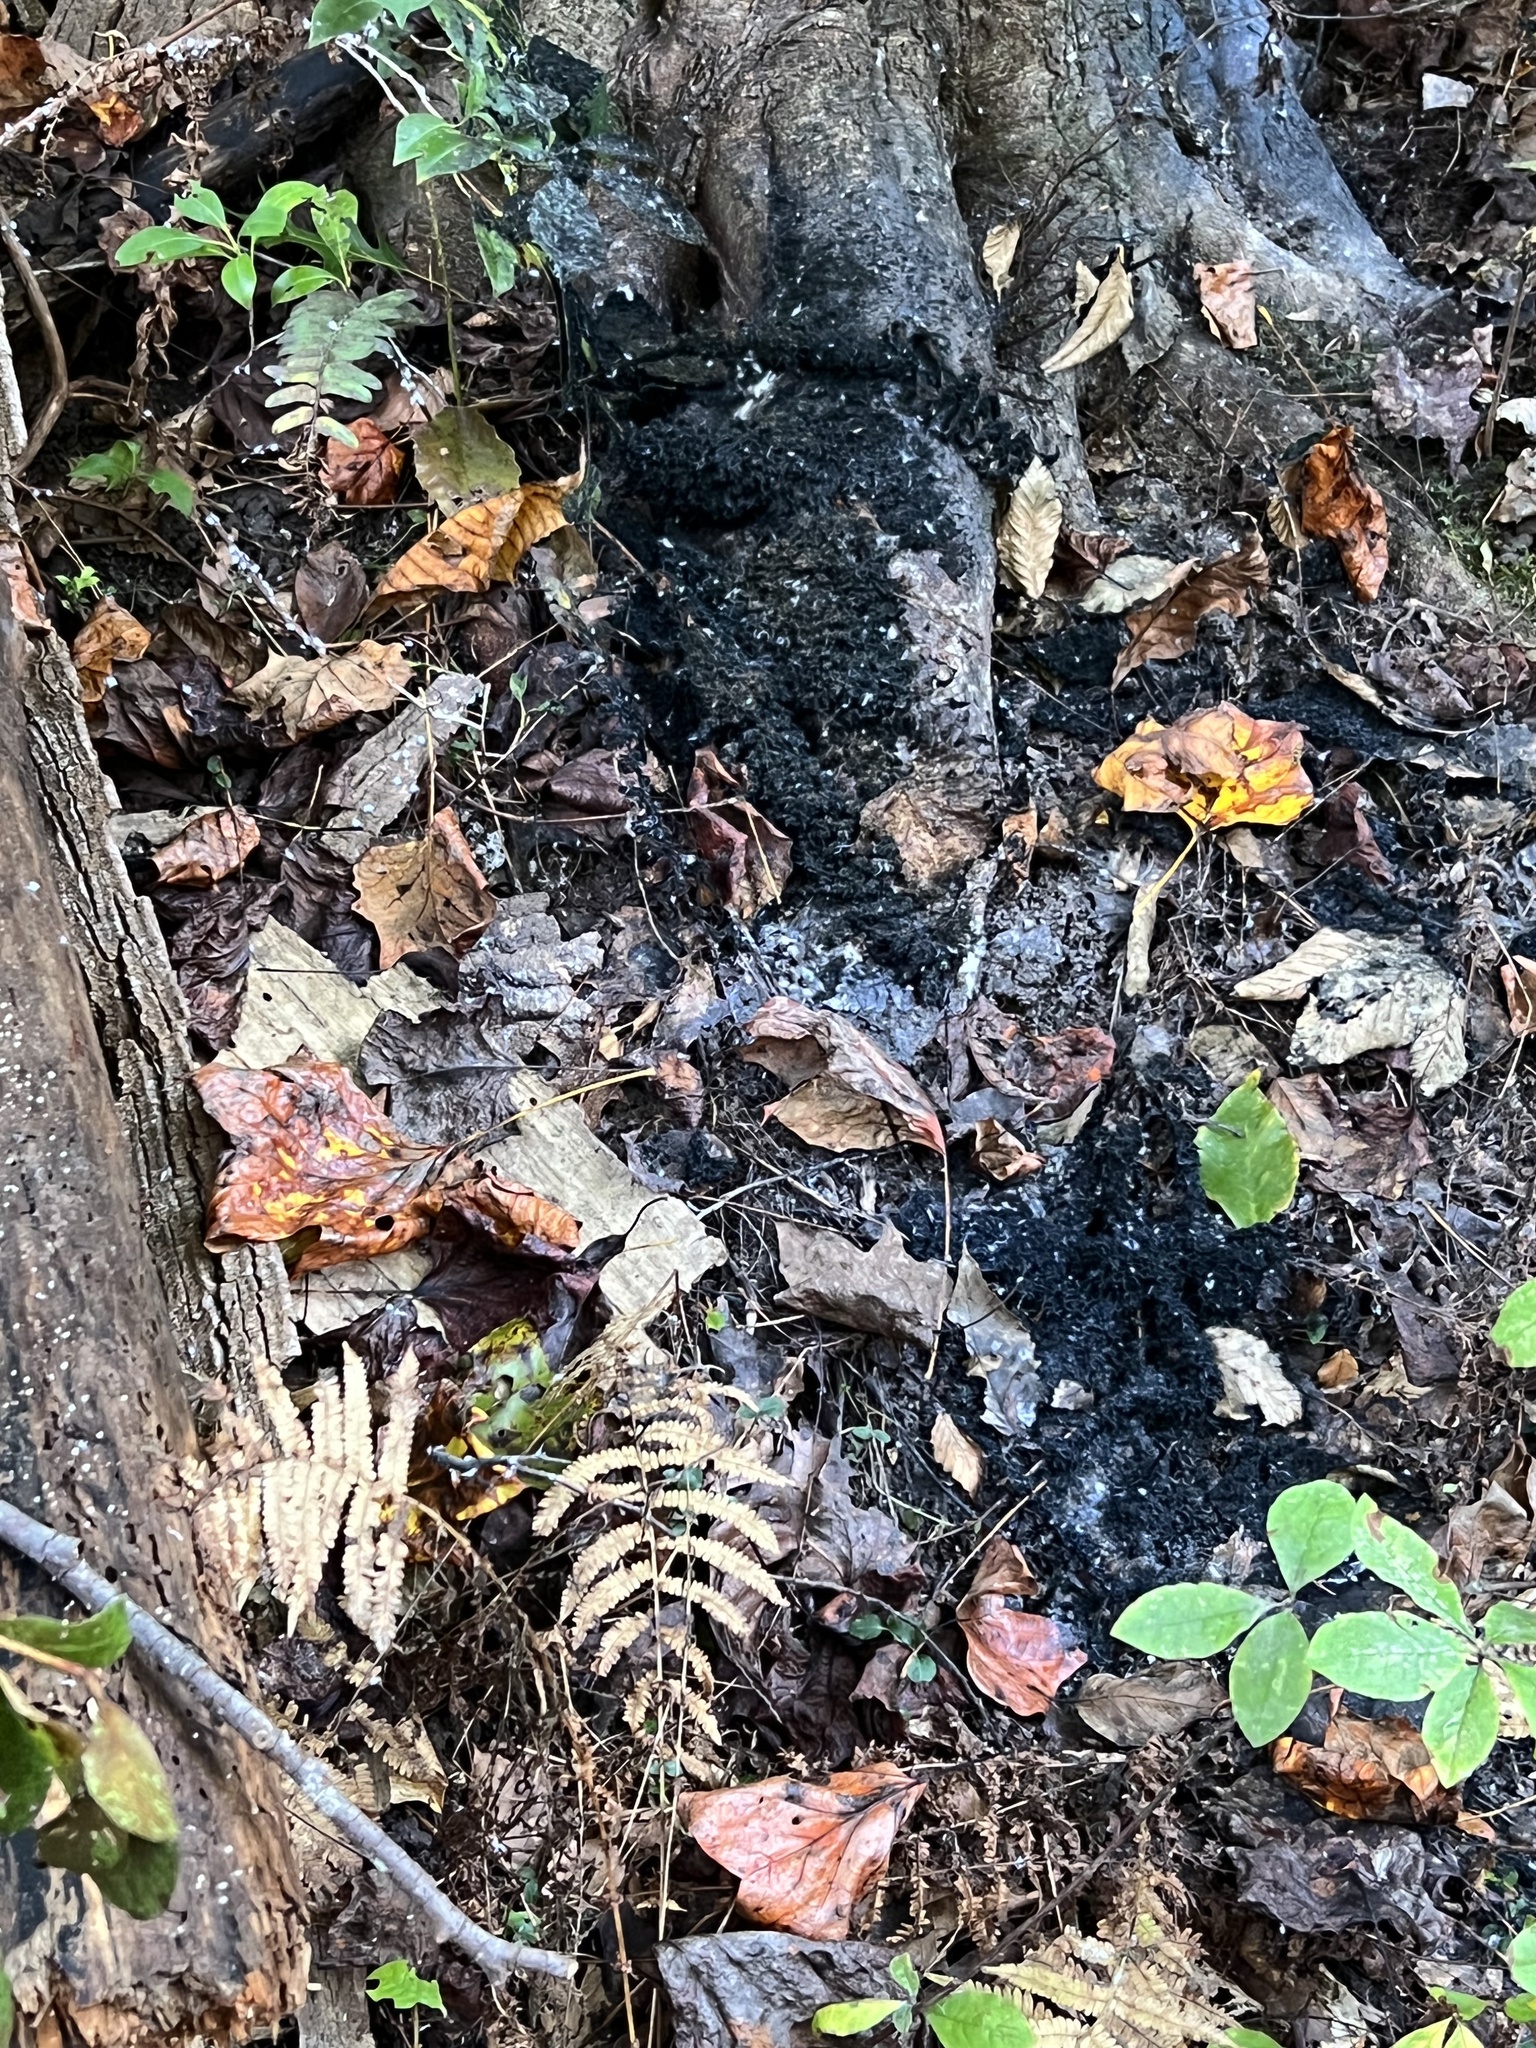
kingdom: Fungi
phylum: Ascomycota
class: Dothideomycetes
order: Capnodiales
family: Capnodiaceae
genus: Scorias
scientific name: Scorias spongiosa
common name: Black sooty mold
